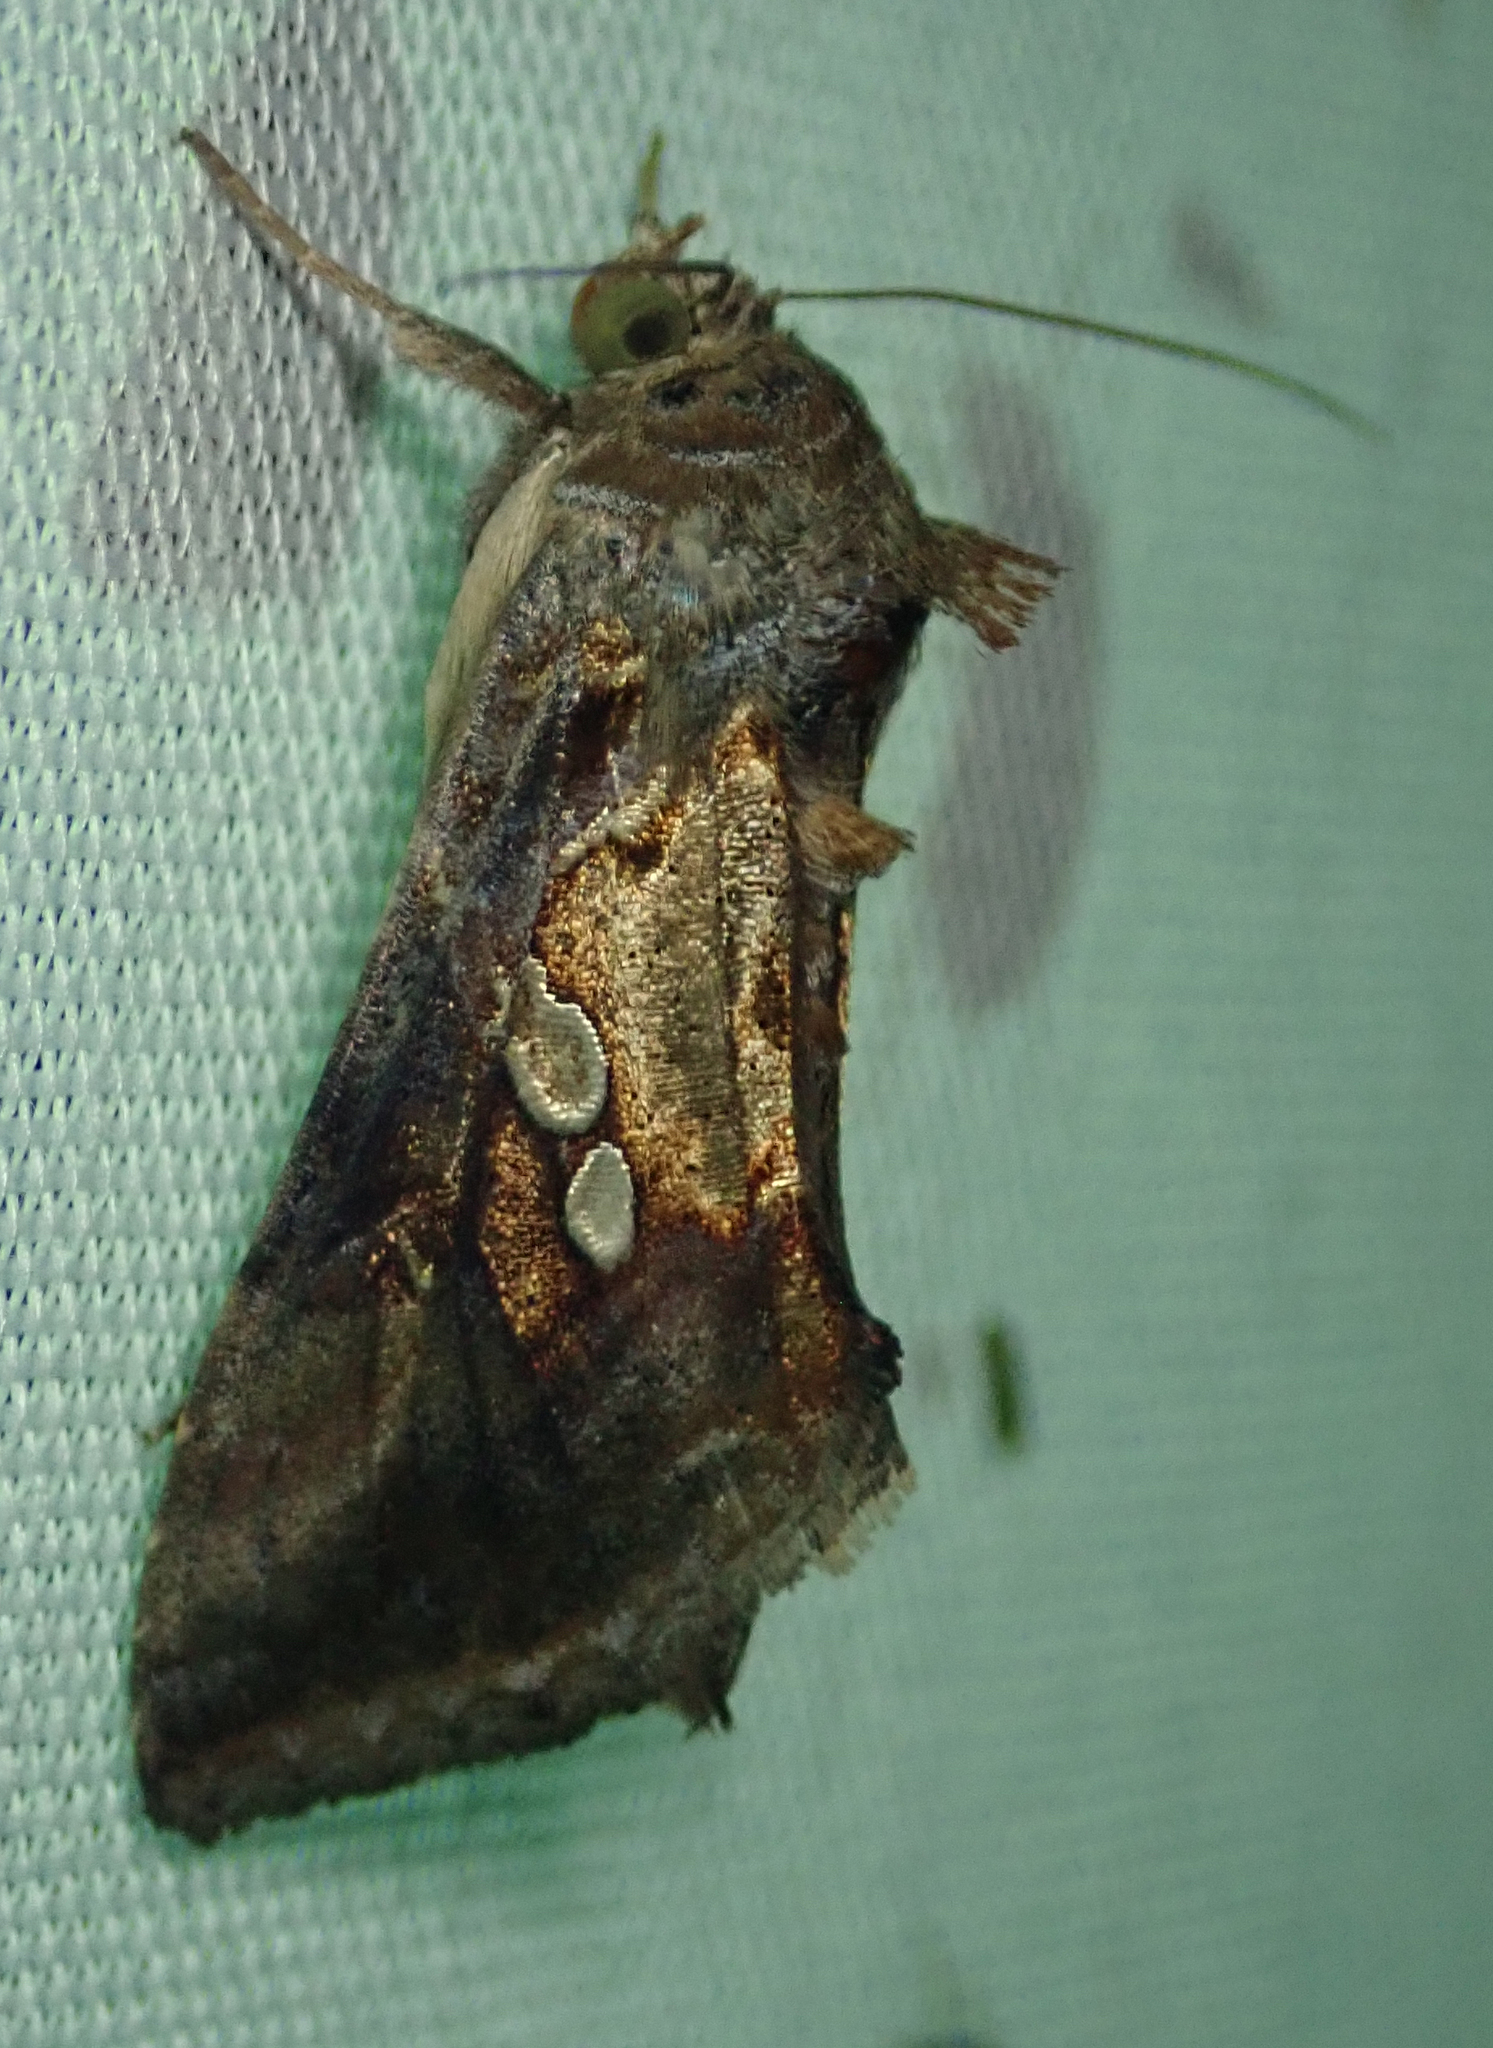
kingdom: Animalia
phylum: Arthropoda
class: Insecta
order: Lepidoptera
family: Noctuidae
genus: Chrysodeixis
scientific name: Chrysodeixis acuta
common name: Tunbridge wells gem
